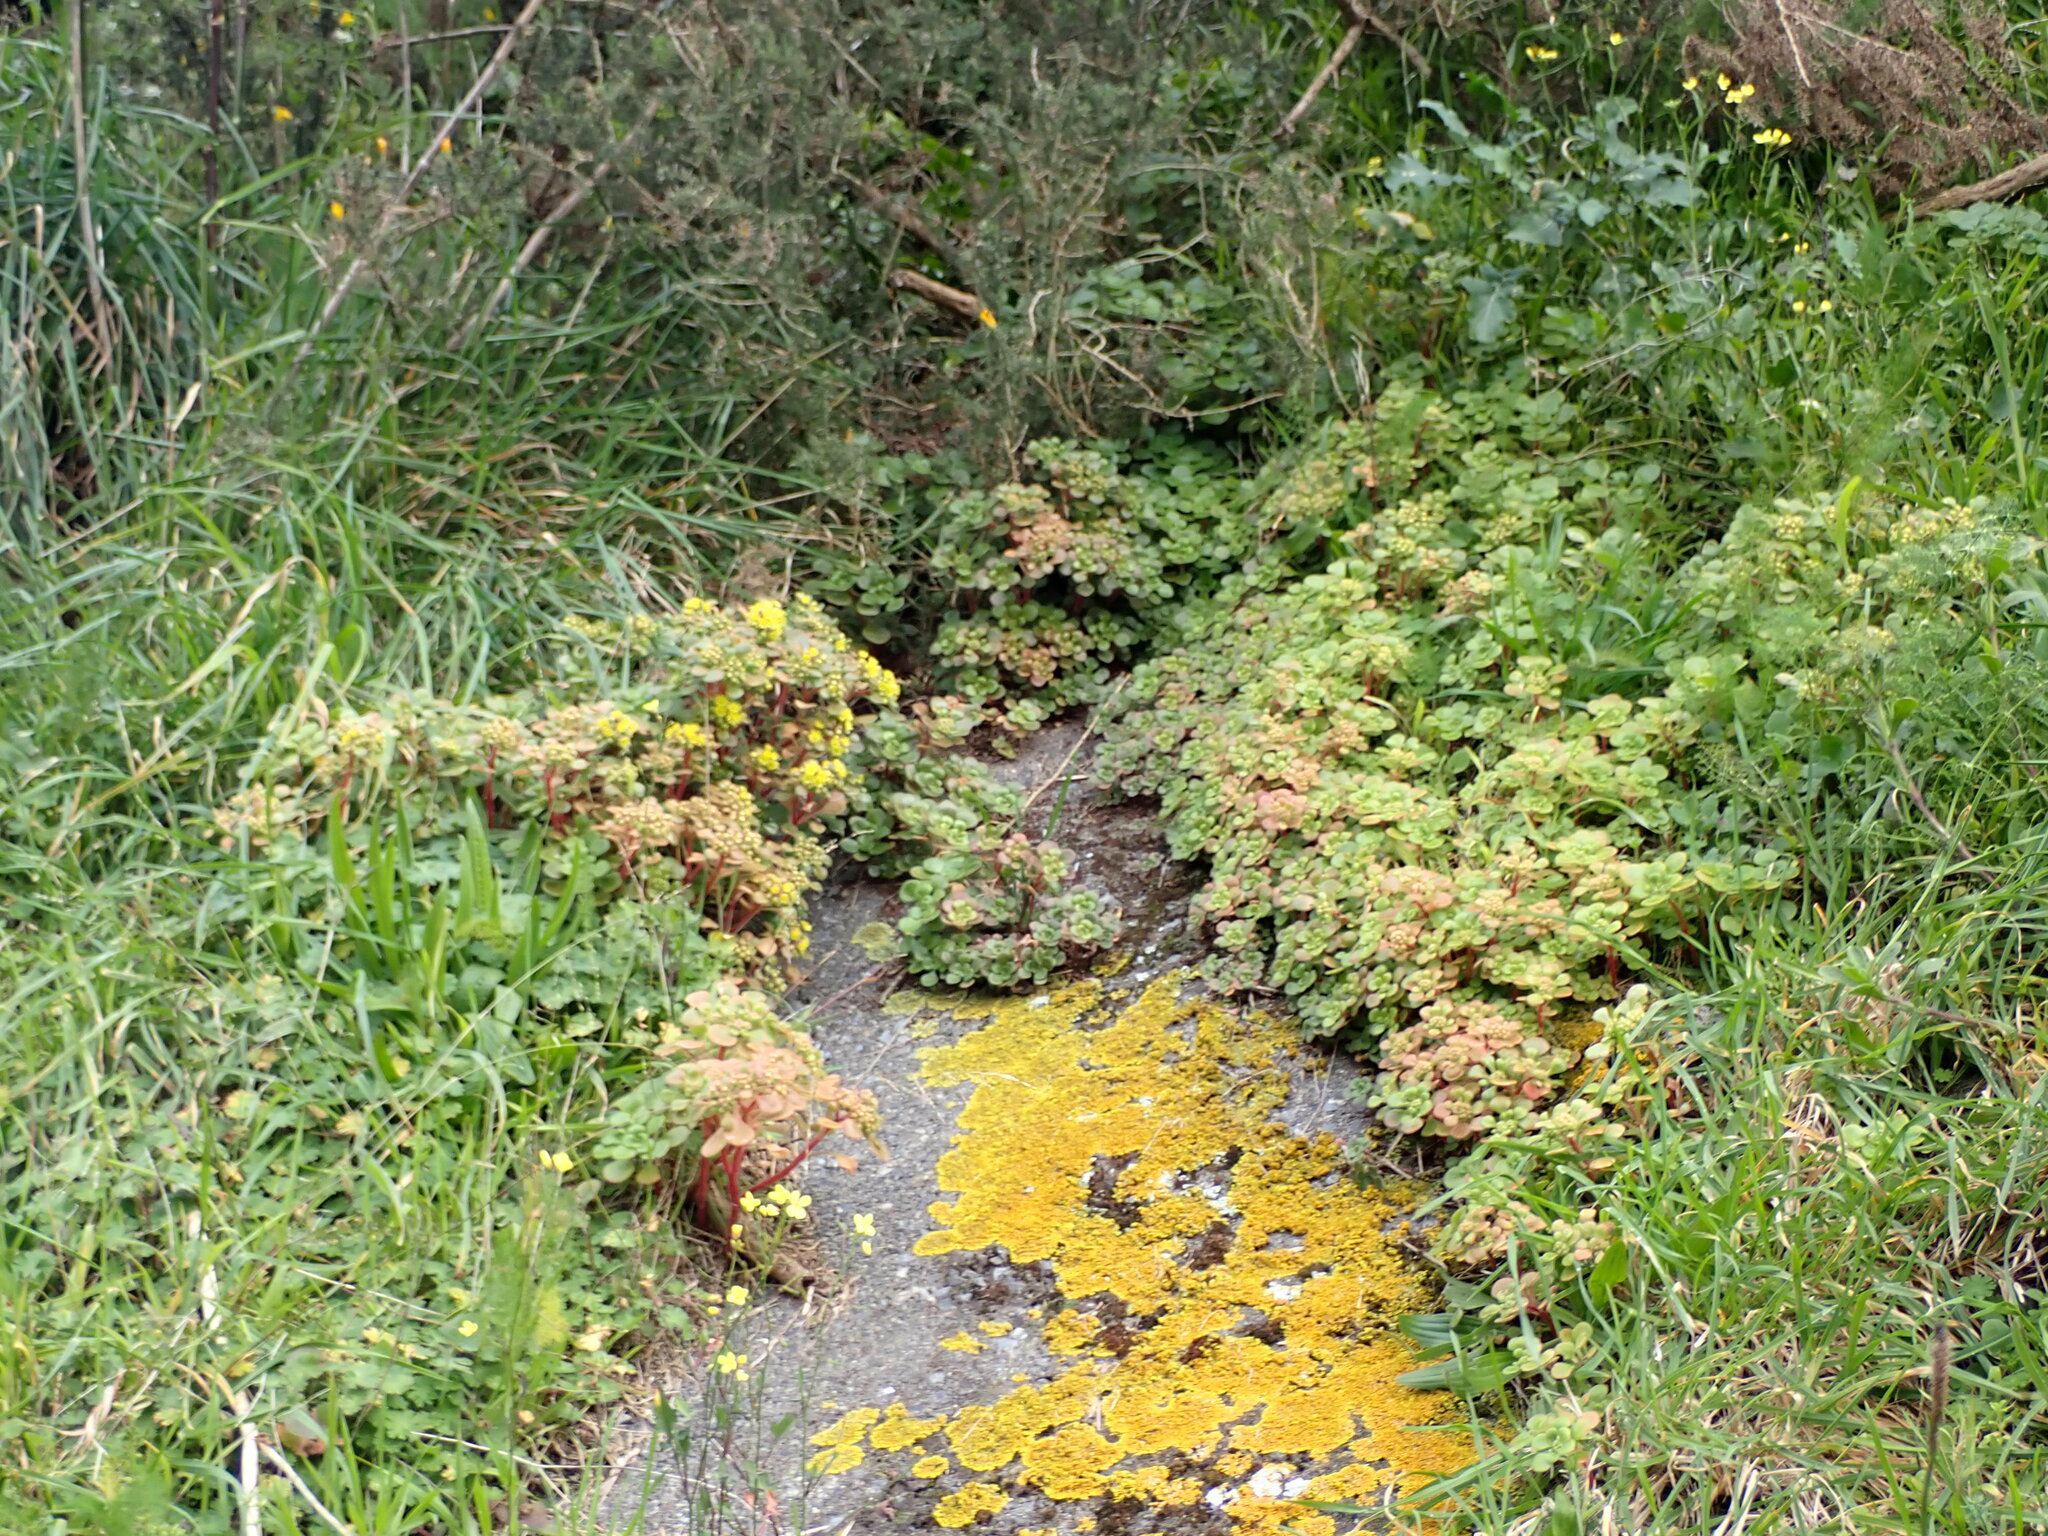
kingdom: Plantae
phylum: Tracheophyta
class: Magnoliopsida
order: Saxifragales
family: Crassulaceae
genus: Aichryson
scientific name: Aichryson laxum
